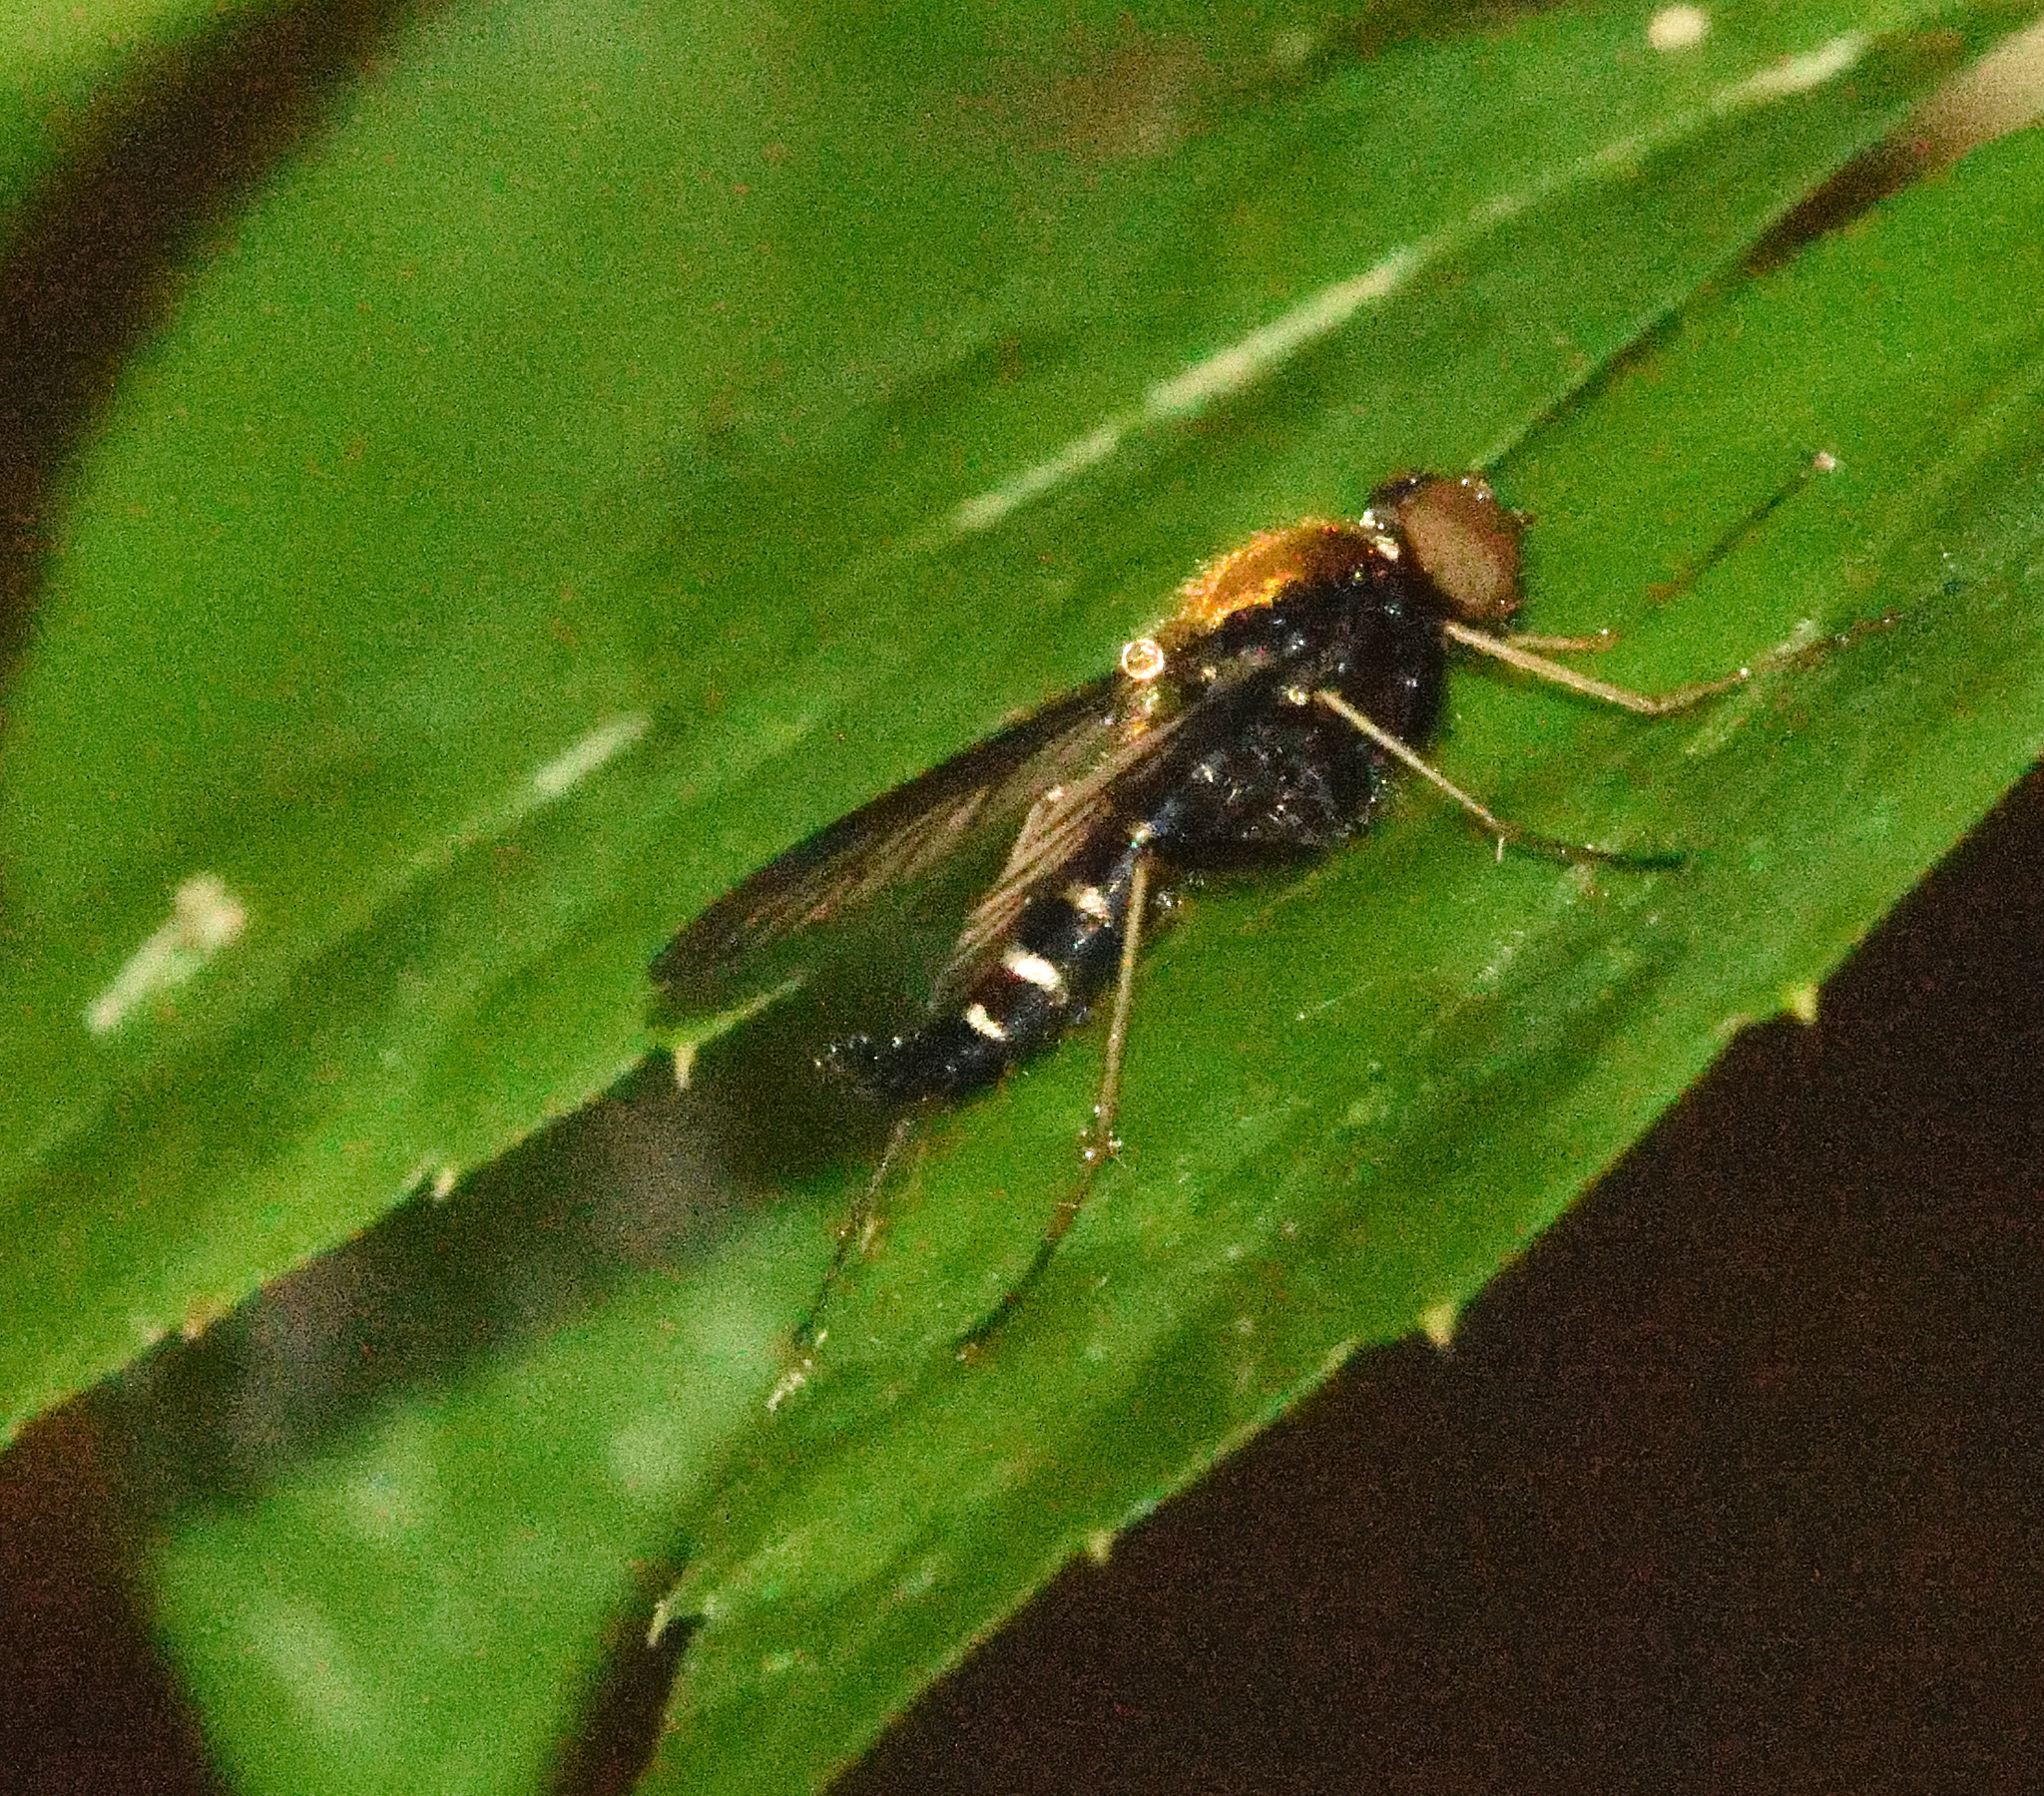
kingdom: Animalia
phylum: Arthropoda
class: Insecta
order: Diptera
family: Rhagionidae
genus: Chrysopilus
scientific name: Chrysopilus thoracicus
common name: Golden-backed snipe fly
